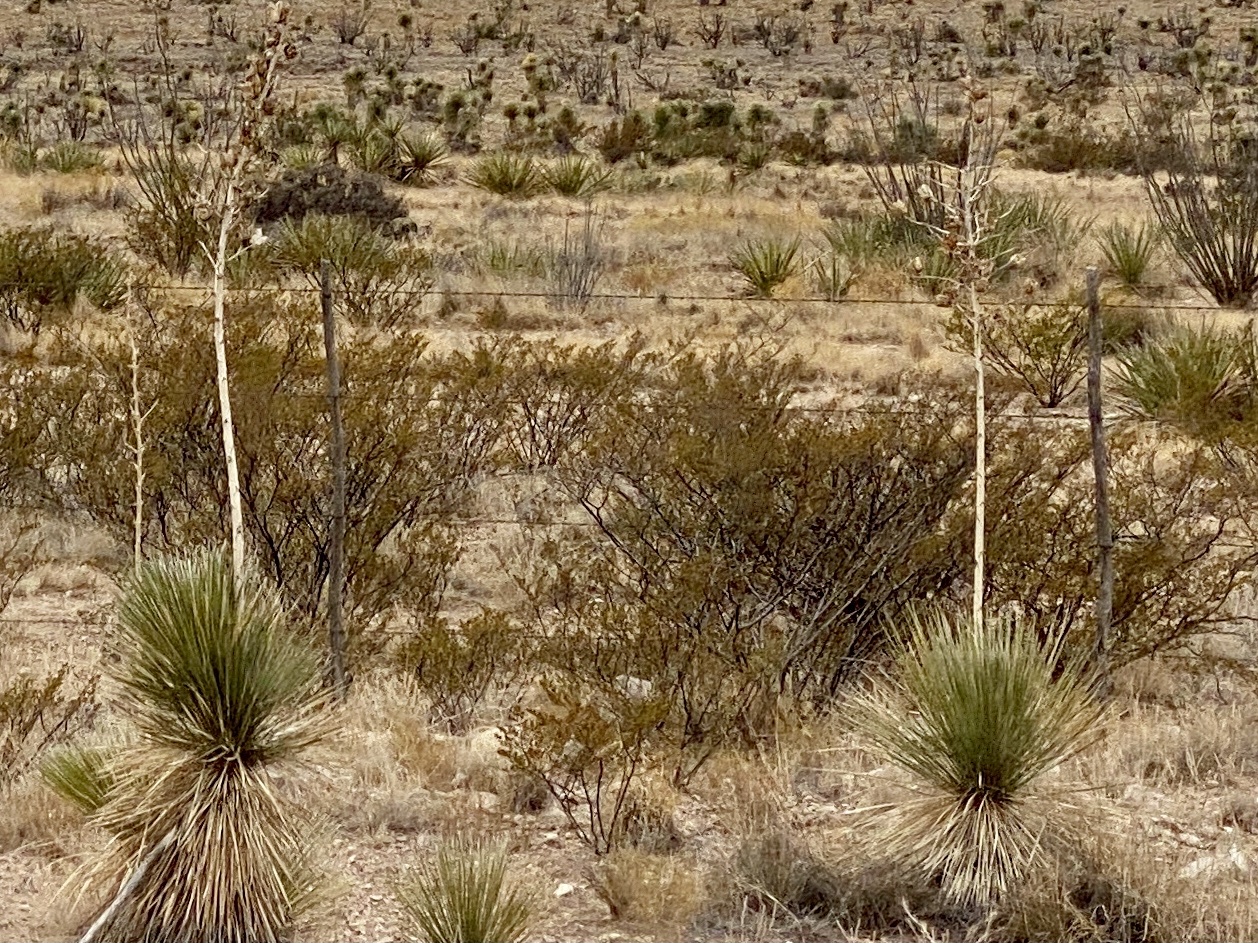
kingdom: Plantae
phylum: Tracheophyta
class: Magnoliopsida
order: Zygophyllales
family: Zygophyllaceae
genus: Larrea
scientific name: Larrea tridentata
